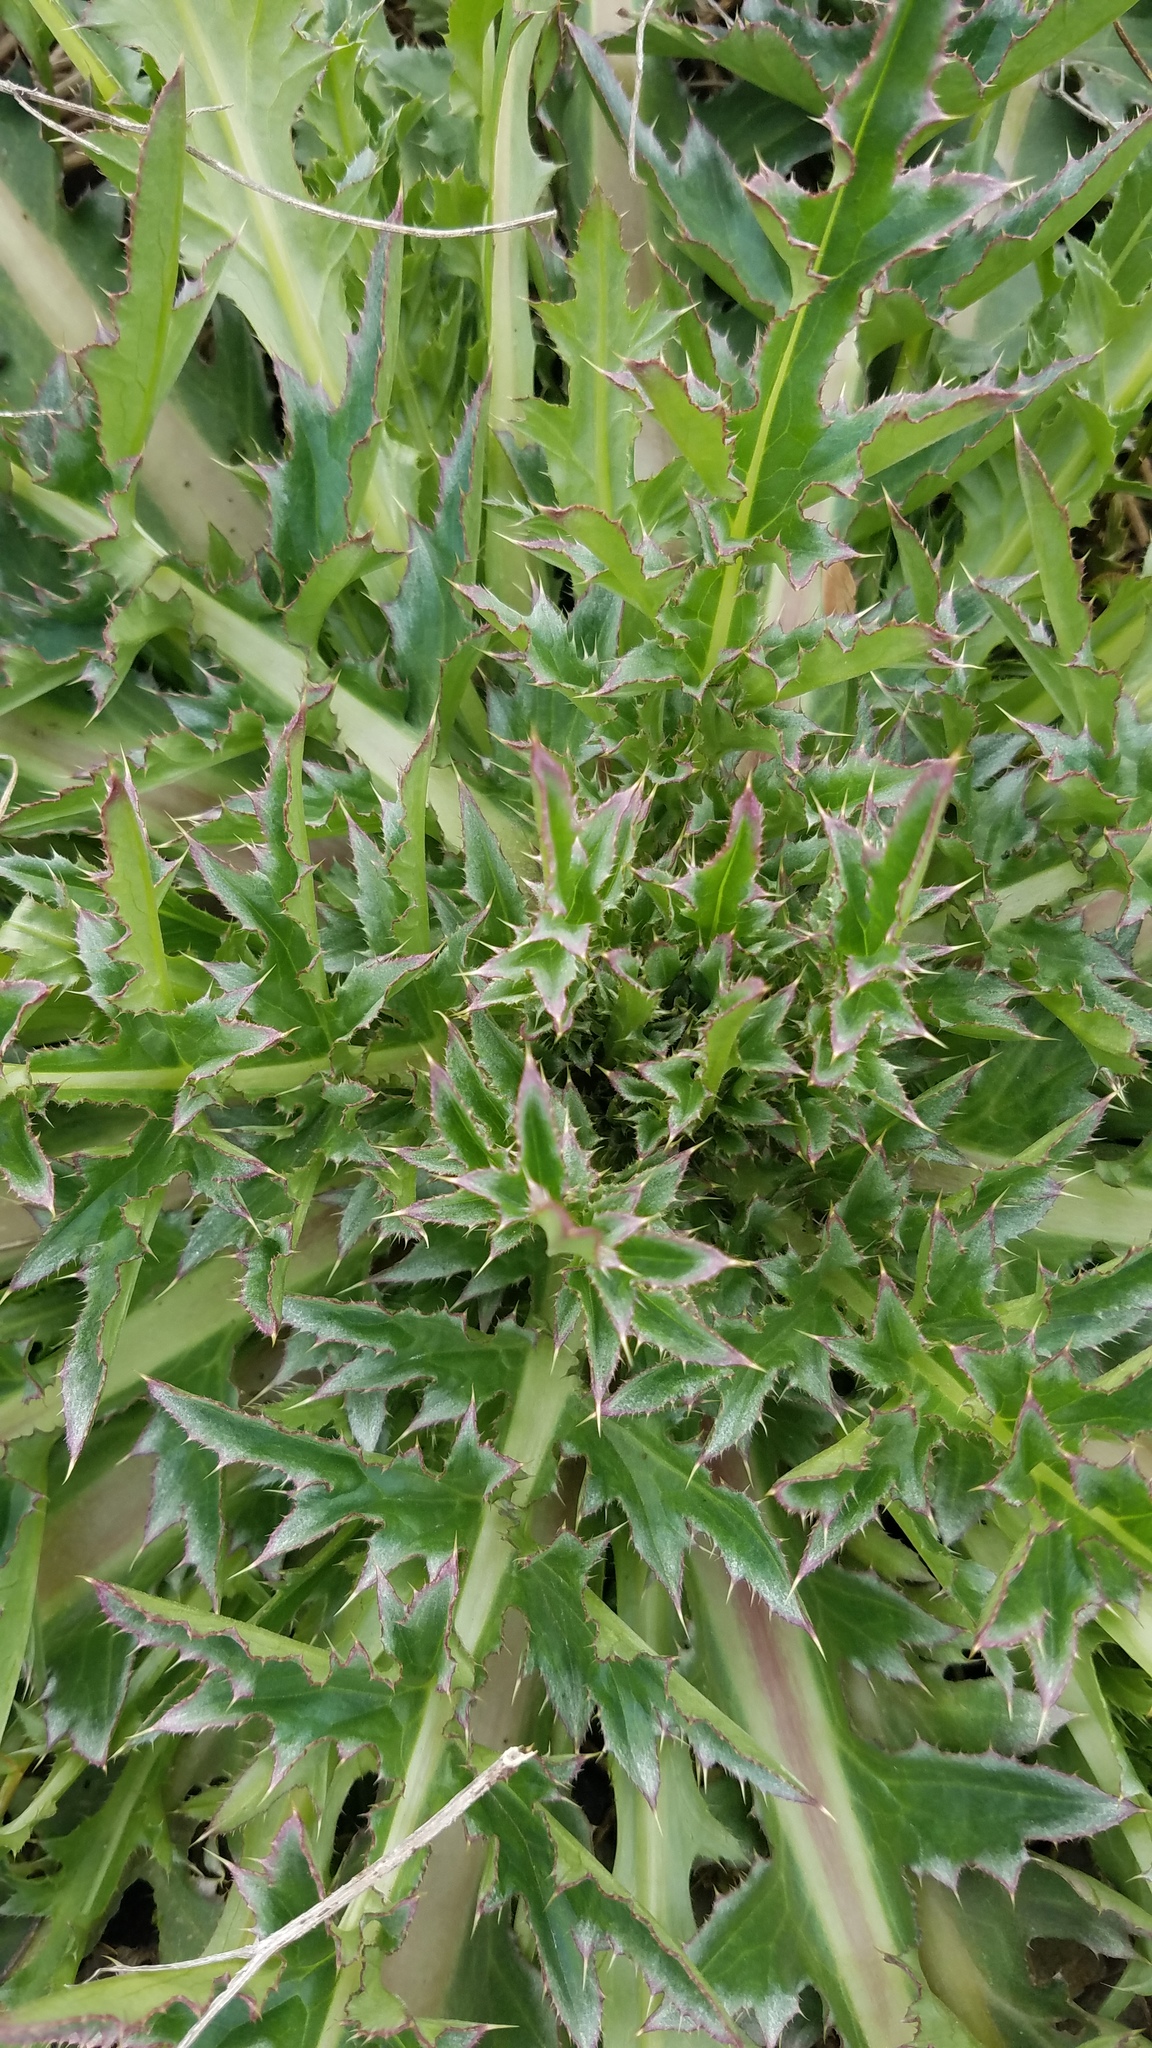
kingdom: Plantae
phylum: Tracheophyta
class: Magnoliopsida
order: Asterales
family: Asteraceae
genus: Carduus
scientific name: Carduus nutans
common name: Musk thistle
